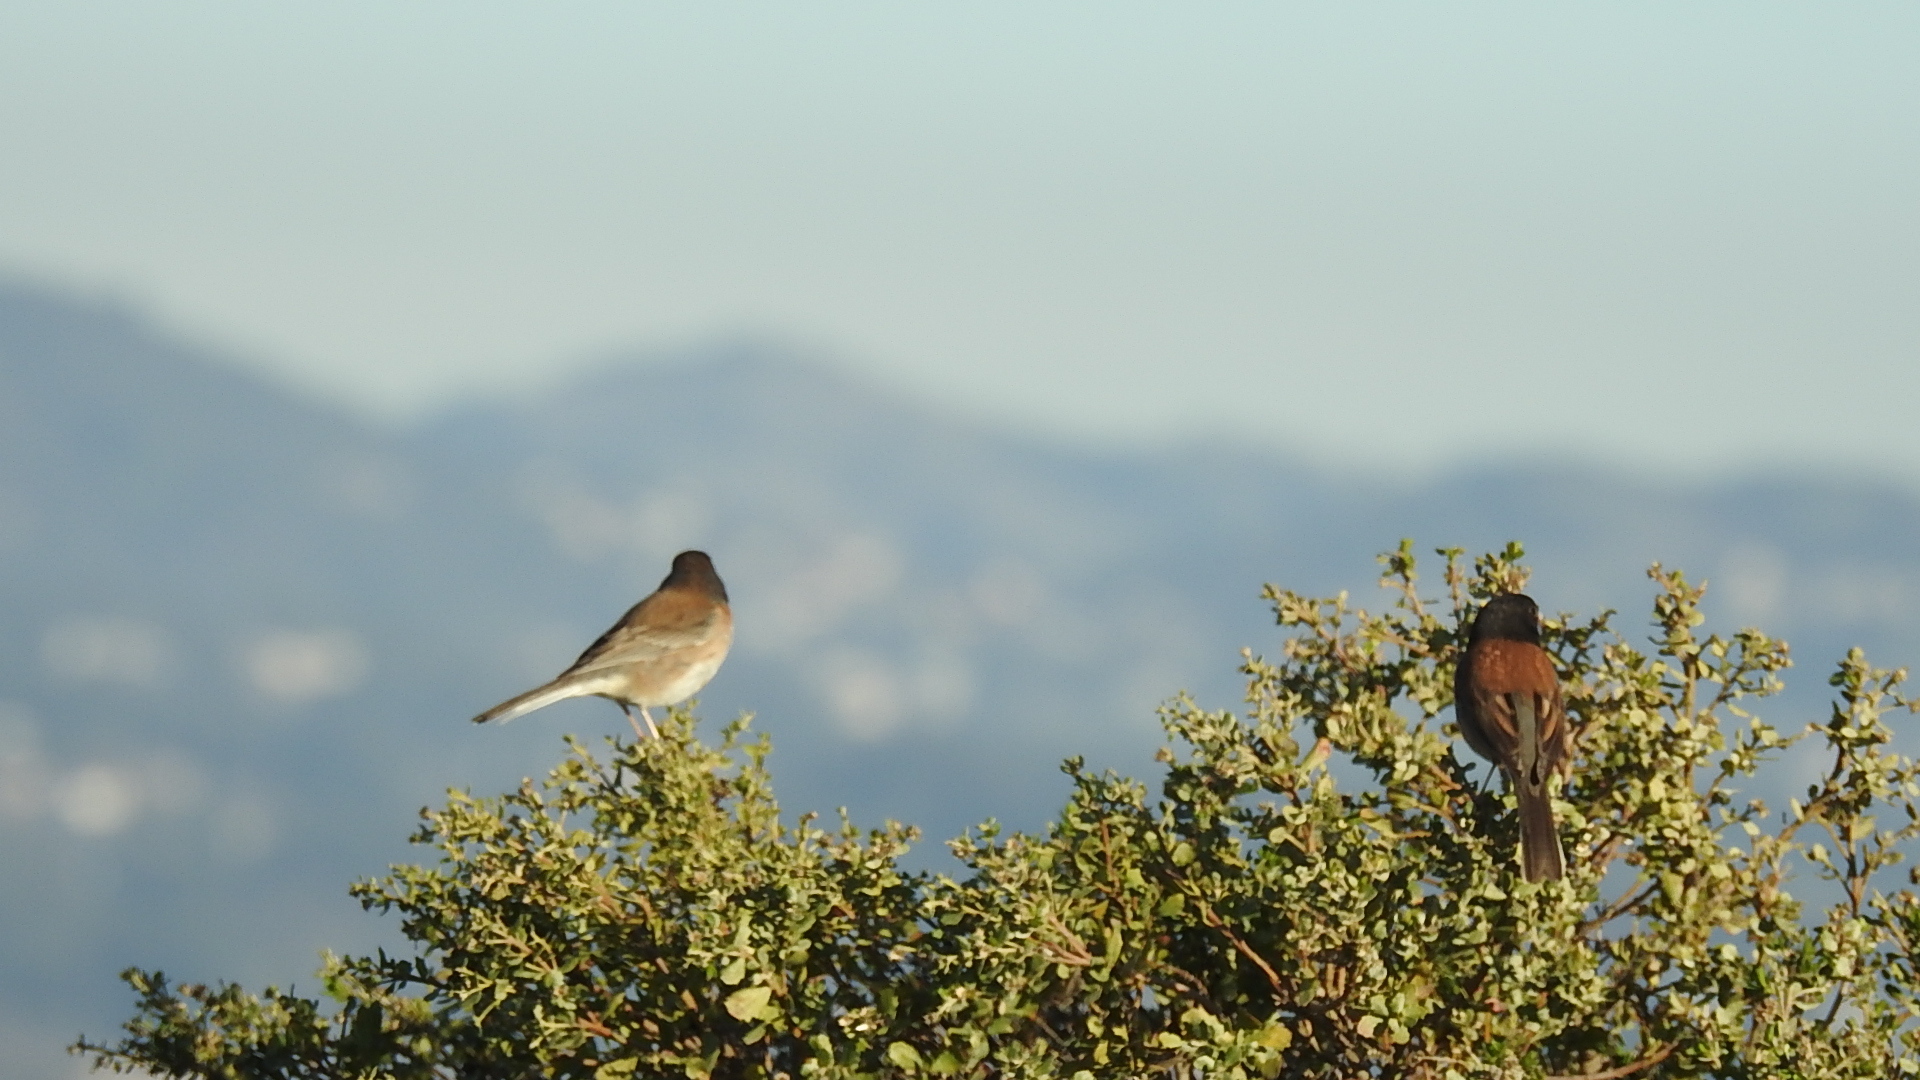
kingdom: Animalia
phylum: Chordata
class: Aves
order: Passeriformes
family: Passerellidae
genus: Junco
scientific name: Junco hyemalis
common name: Dark-eyed junco
